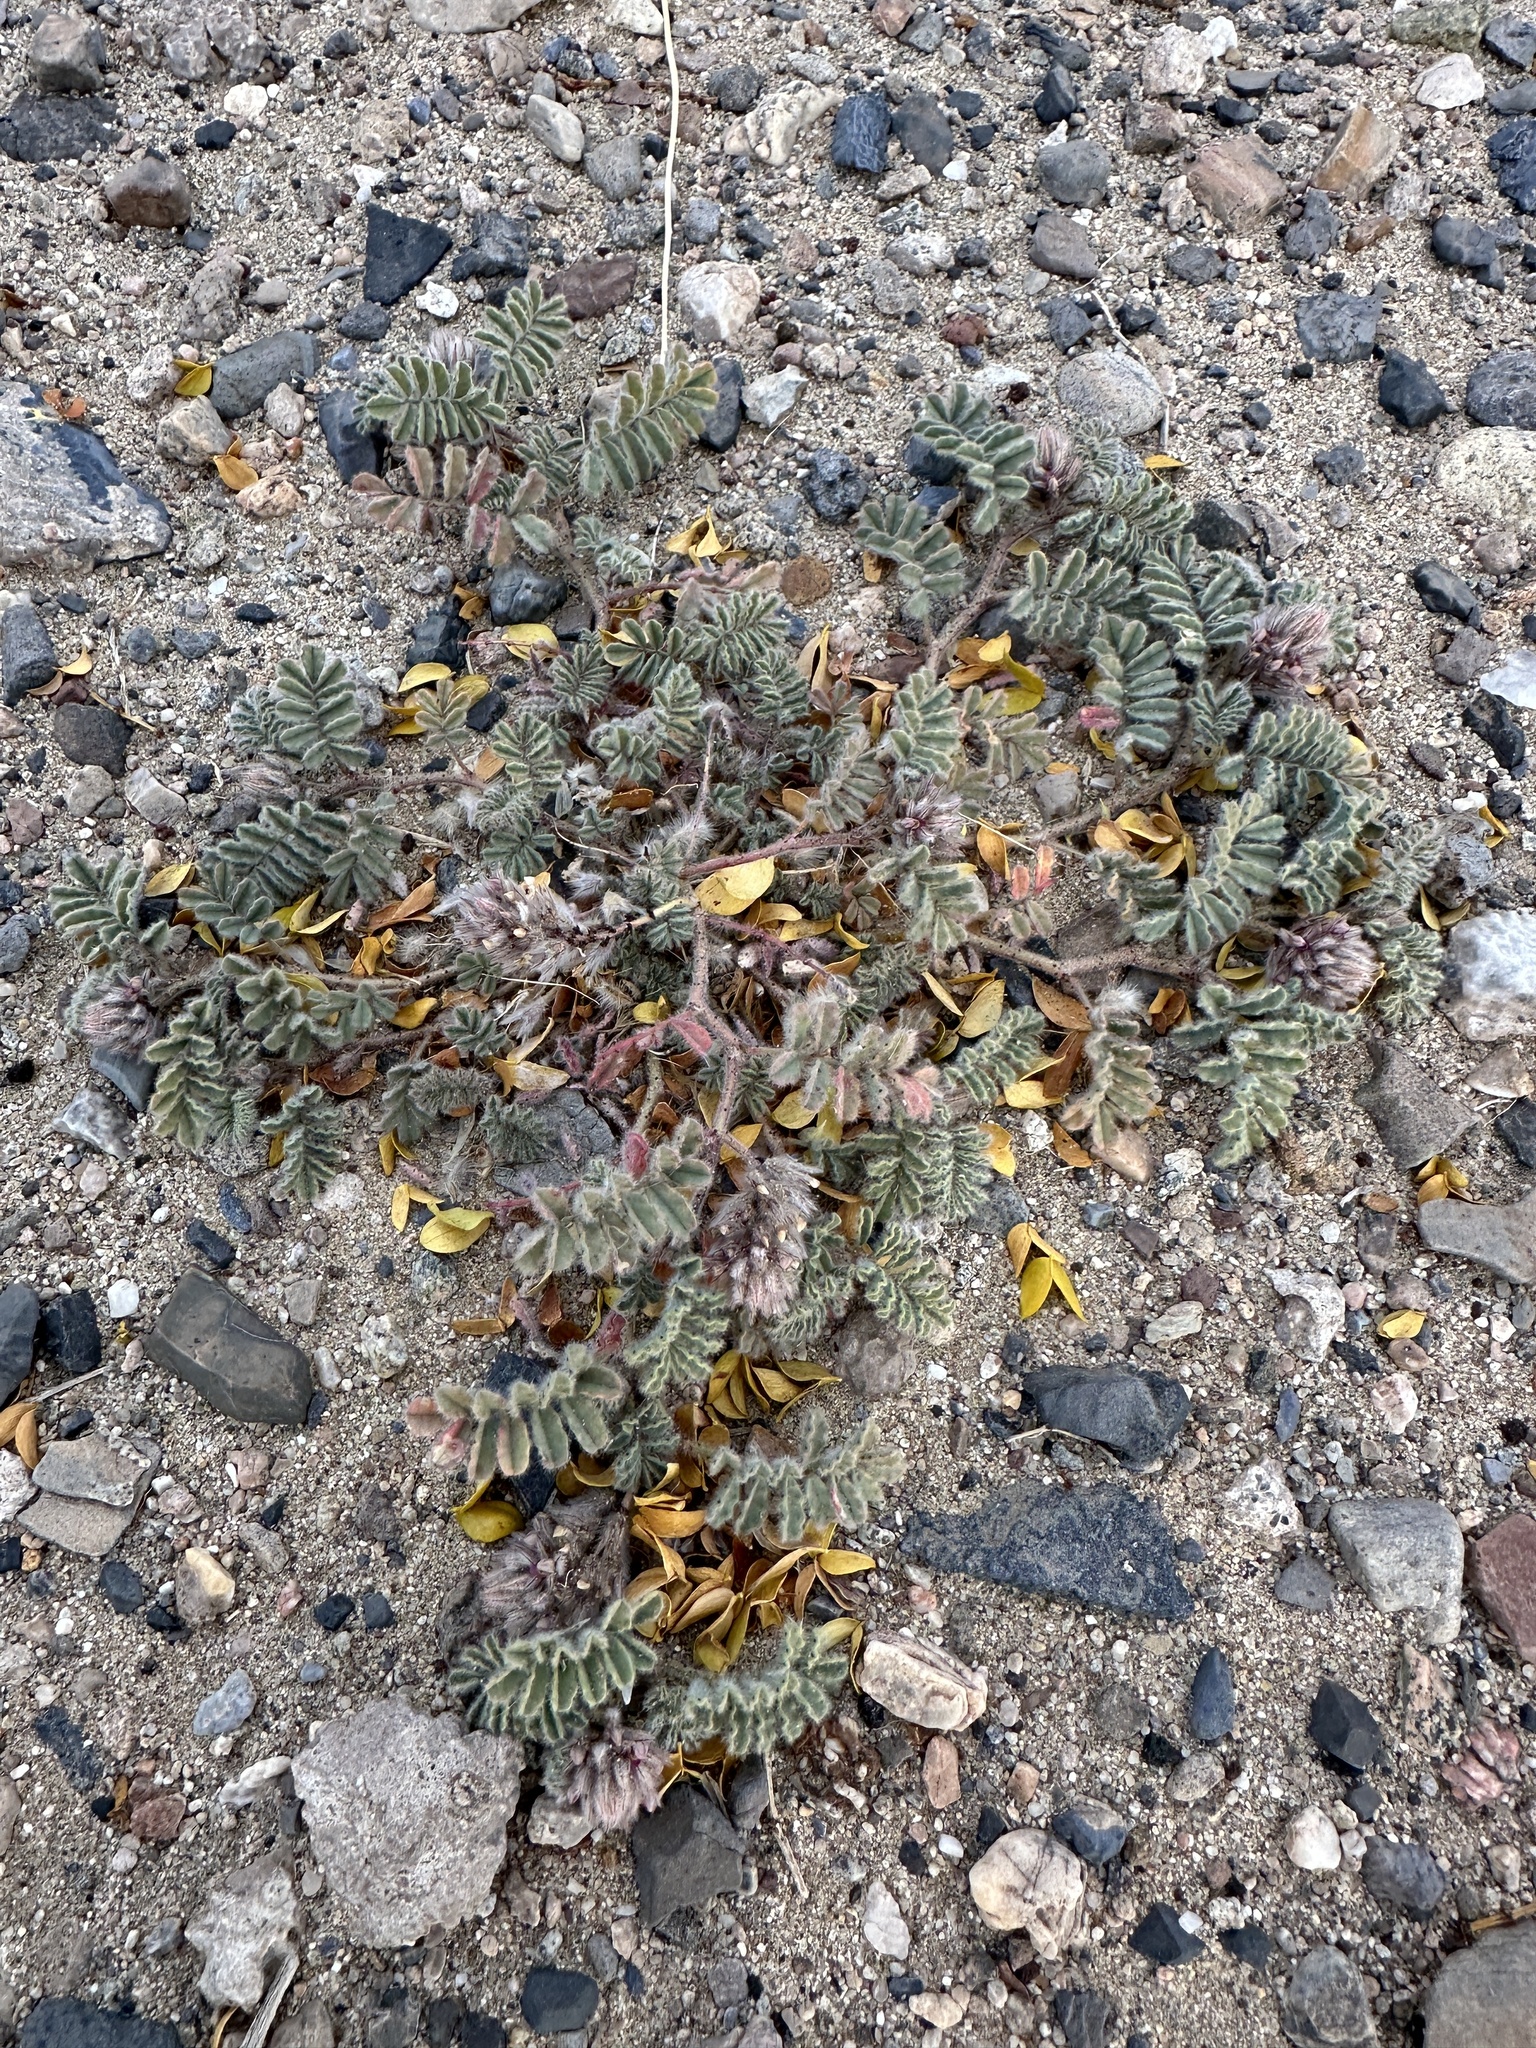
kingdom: Plantae
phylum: Tracheophyta
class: Magnoliopsida
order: Fabales
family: Fabaceae
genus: Dalea
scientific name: Dalea mollissima
